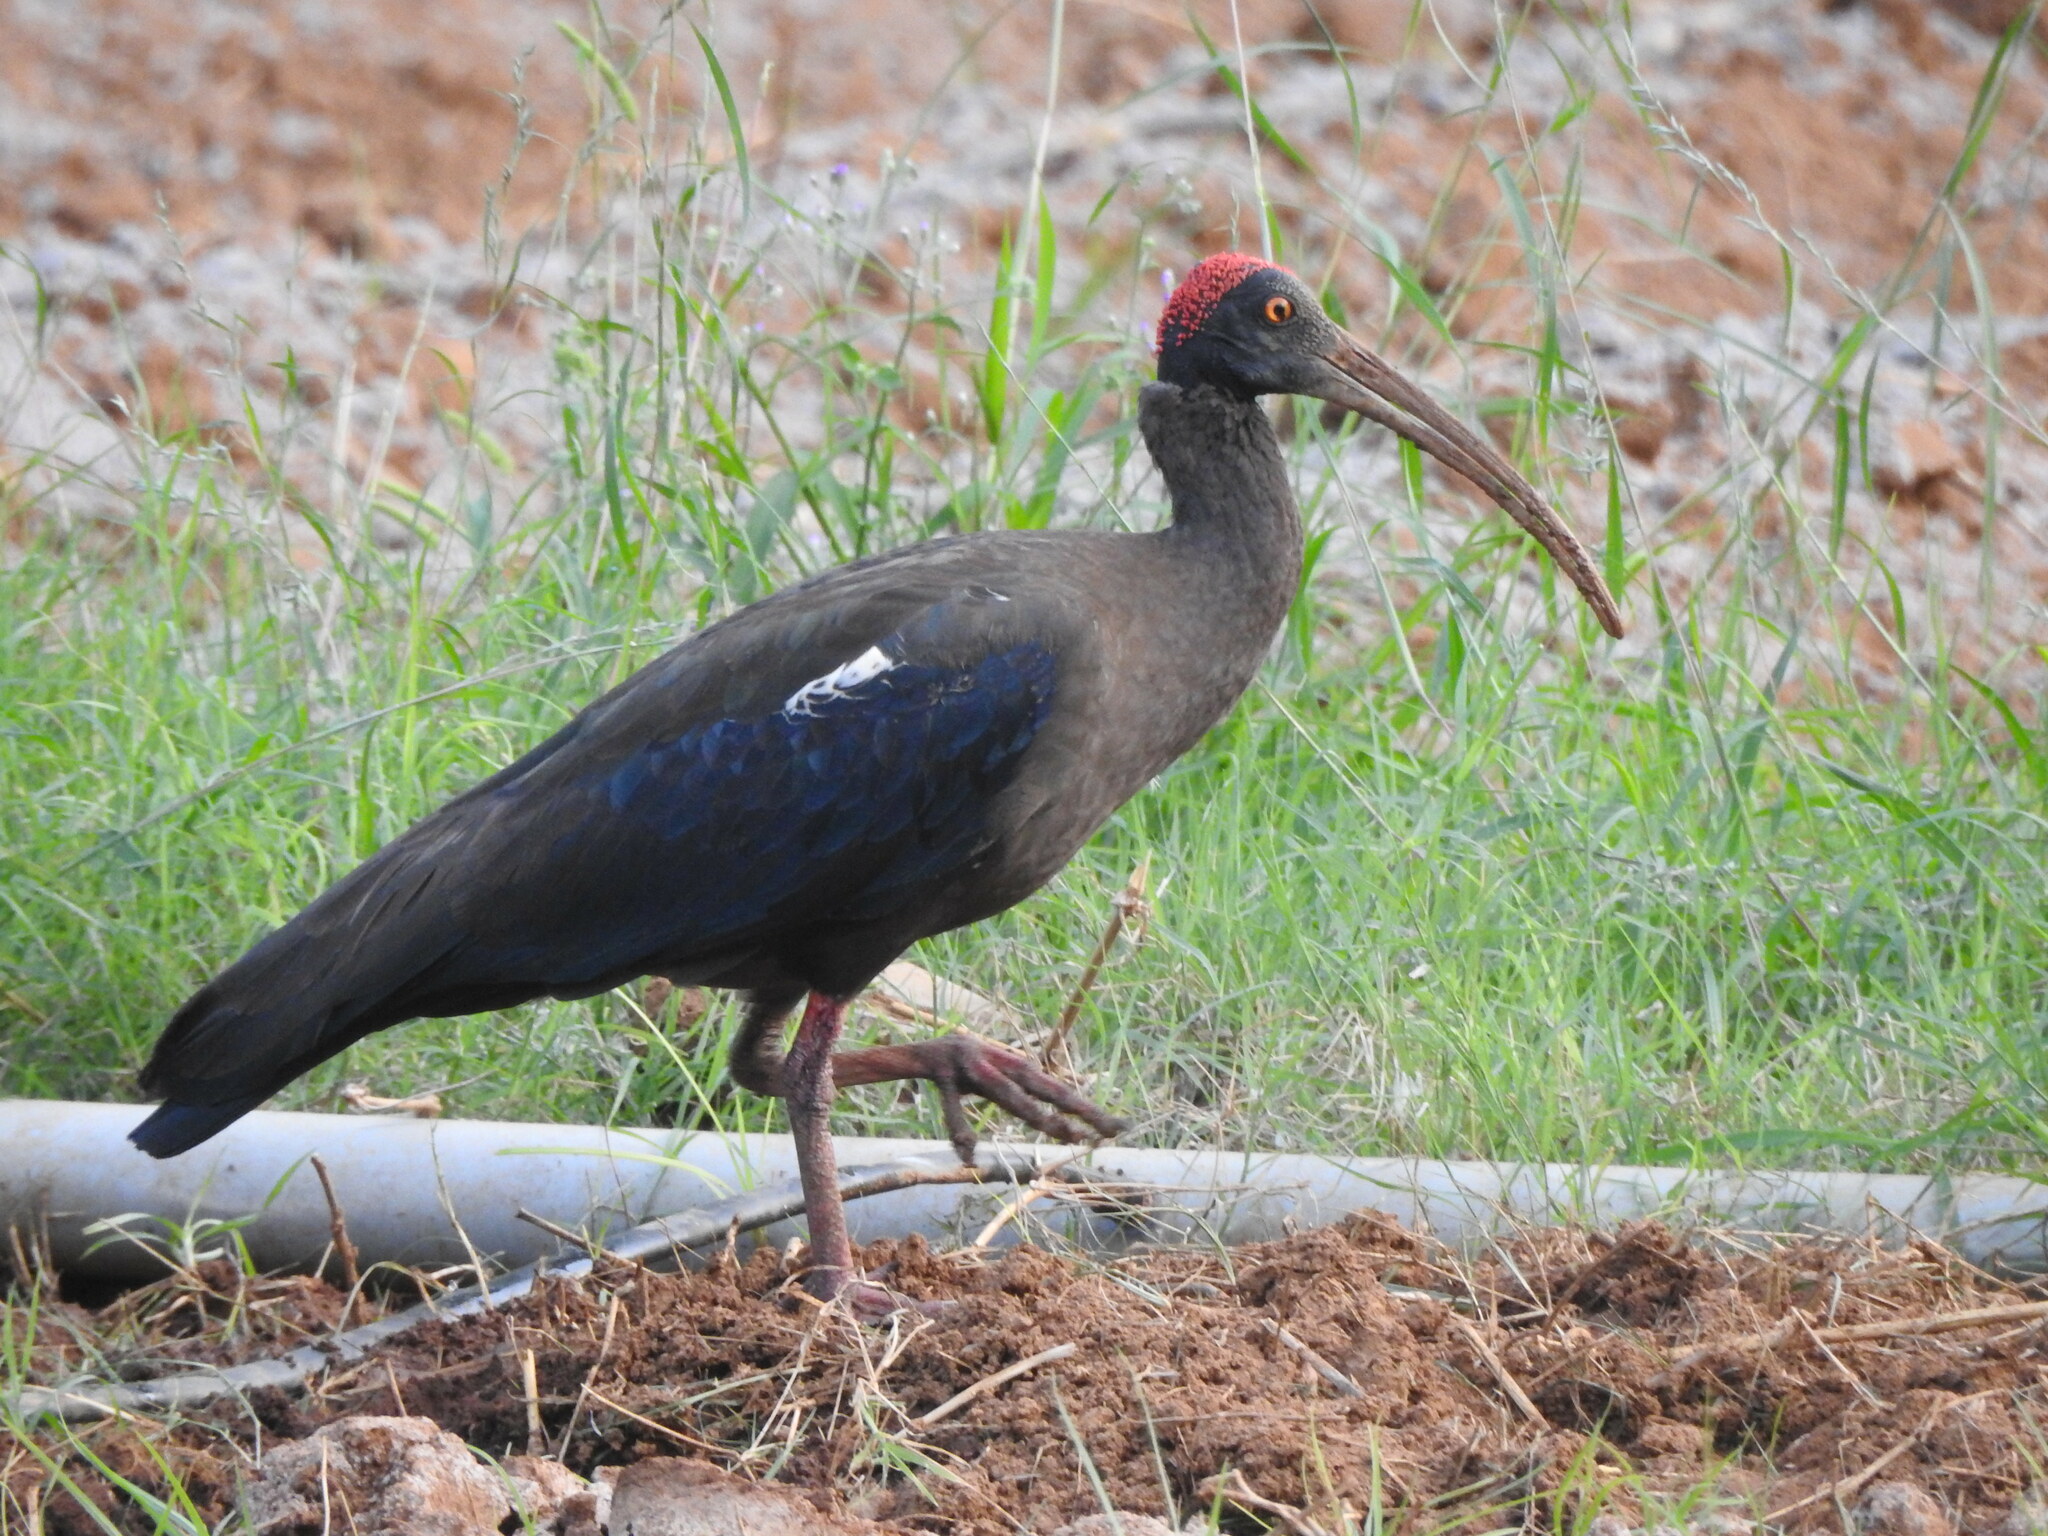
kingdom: Animalia
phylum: Chordata
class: Aves
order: Pelecaniformes
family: Threskiornithidae
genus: Pseudibis
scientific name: Pseudibis papillosa
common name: Red-naped ibis
